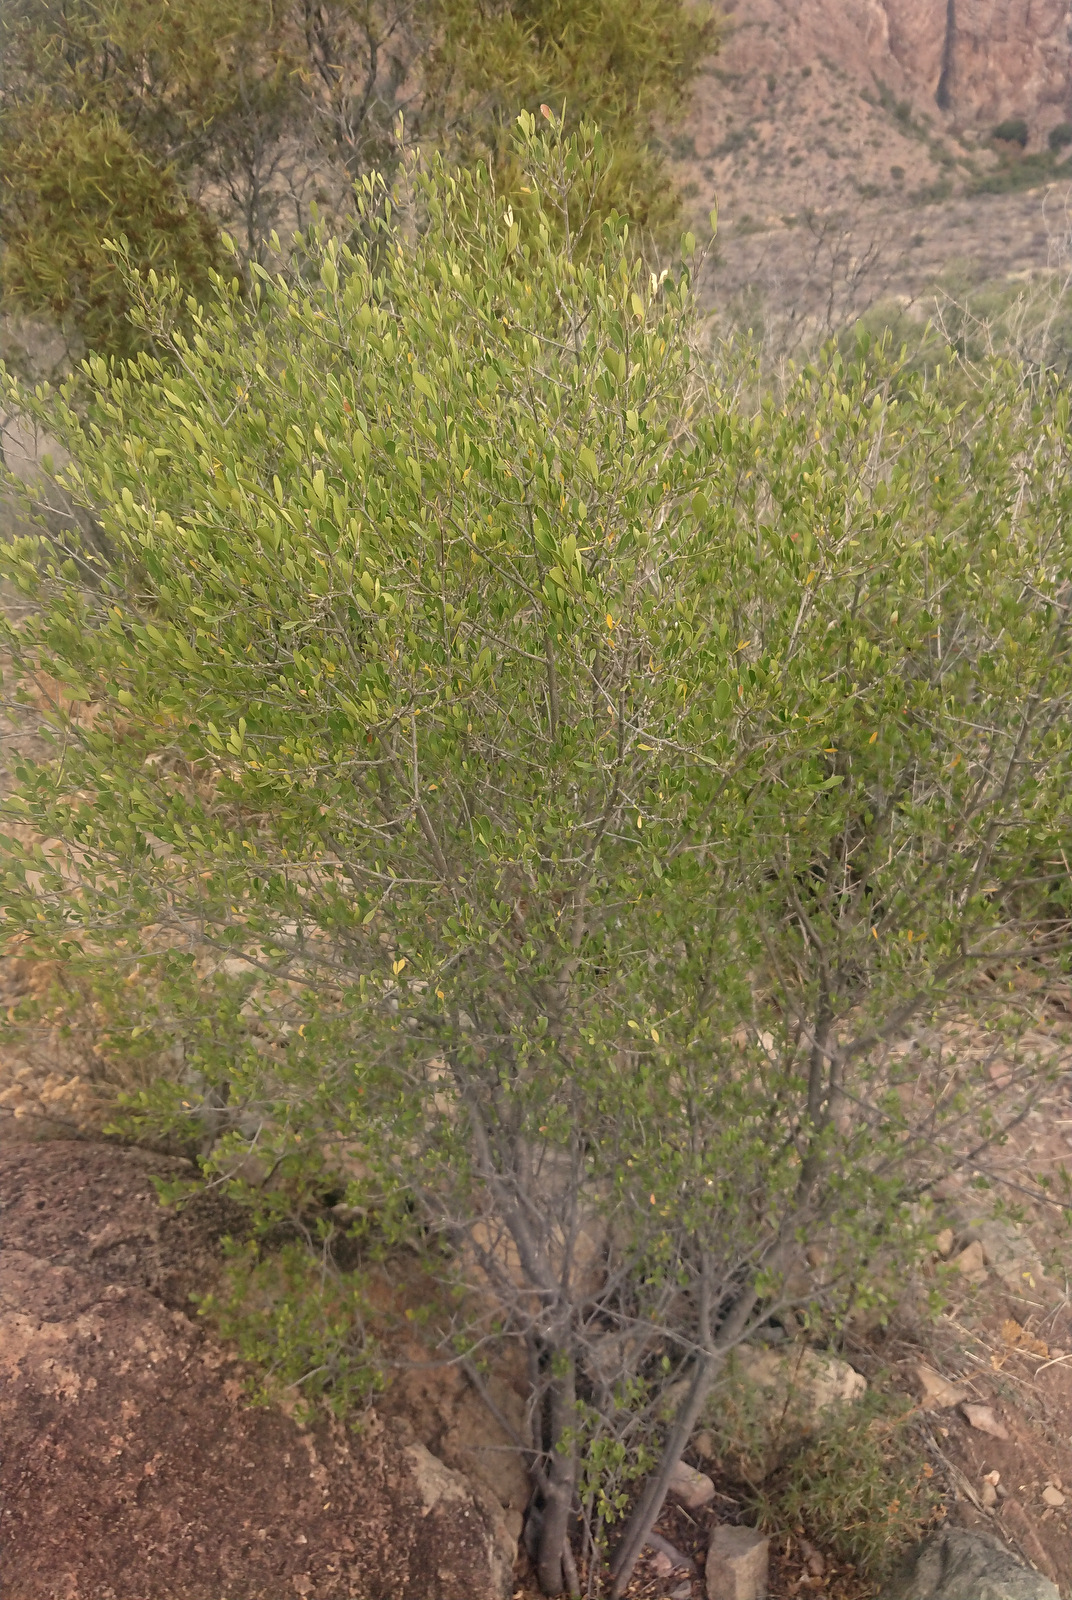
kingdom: Plantae
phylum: Tracheophyta
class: Magnoliopsida
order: Lamiales
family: Oleaceae
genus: Fraxinus
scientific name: Fraxinus greggii
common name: Gregg ash
